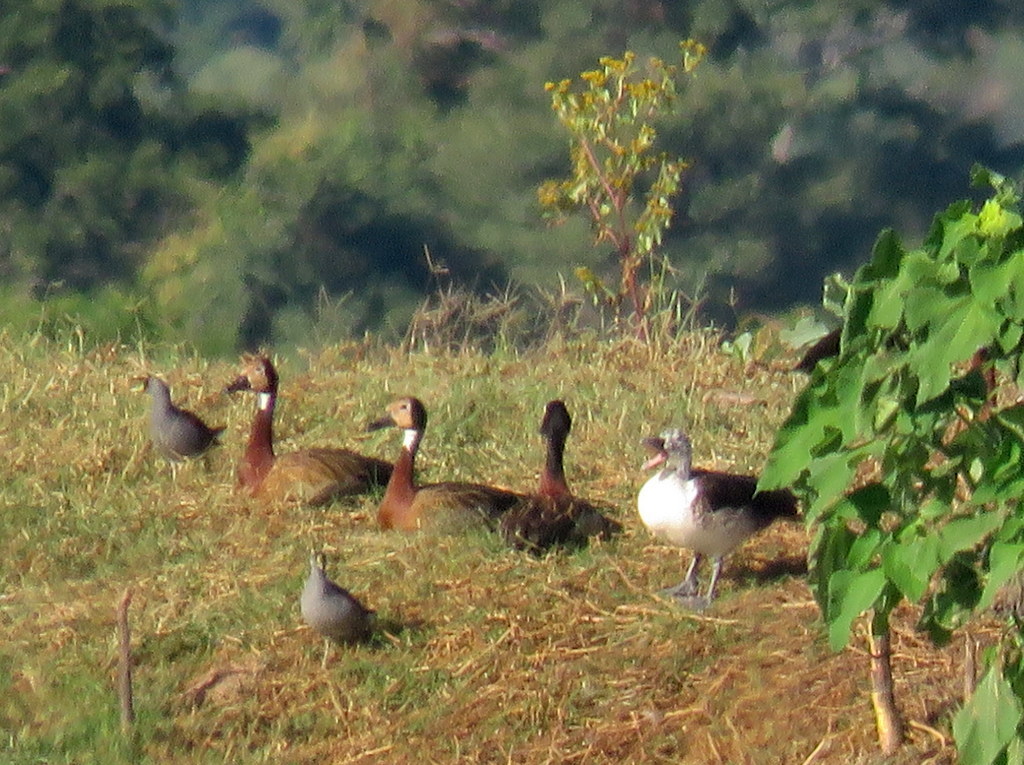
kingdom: Animalia
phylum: Chordata
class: Aves
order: Anseriformes
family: Anatidae
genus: Sarkidiornis
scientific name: Sarkidiornis sylvicola
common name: Comb duck
